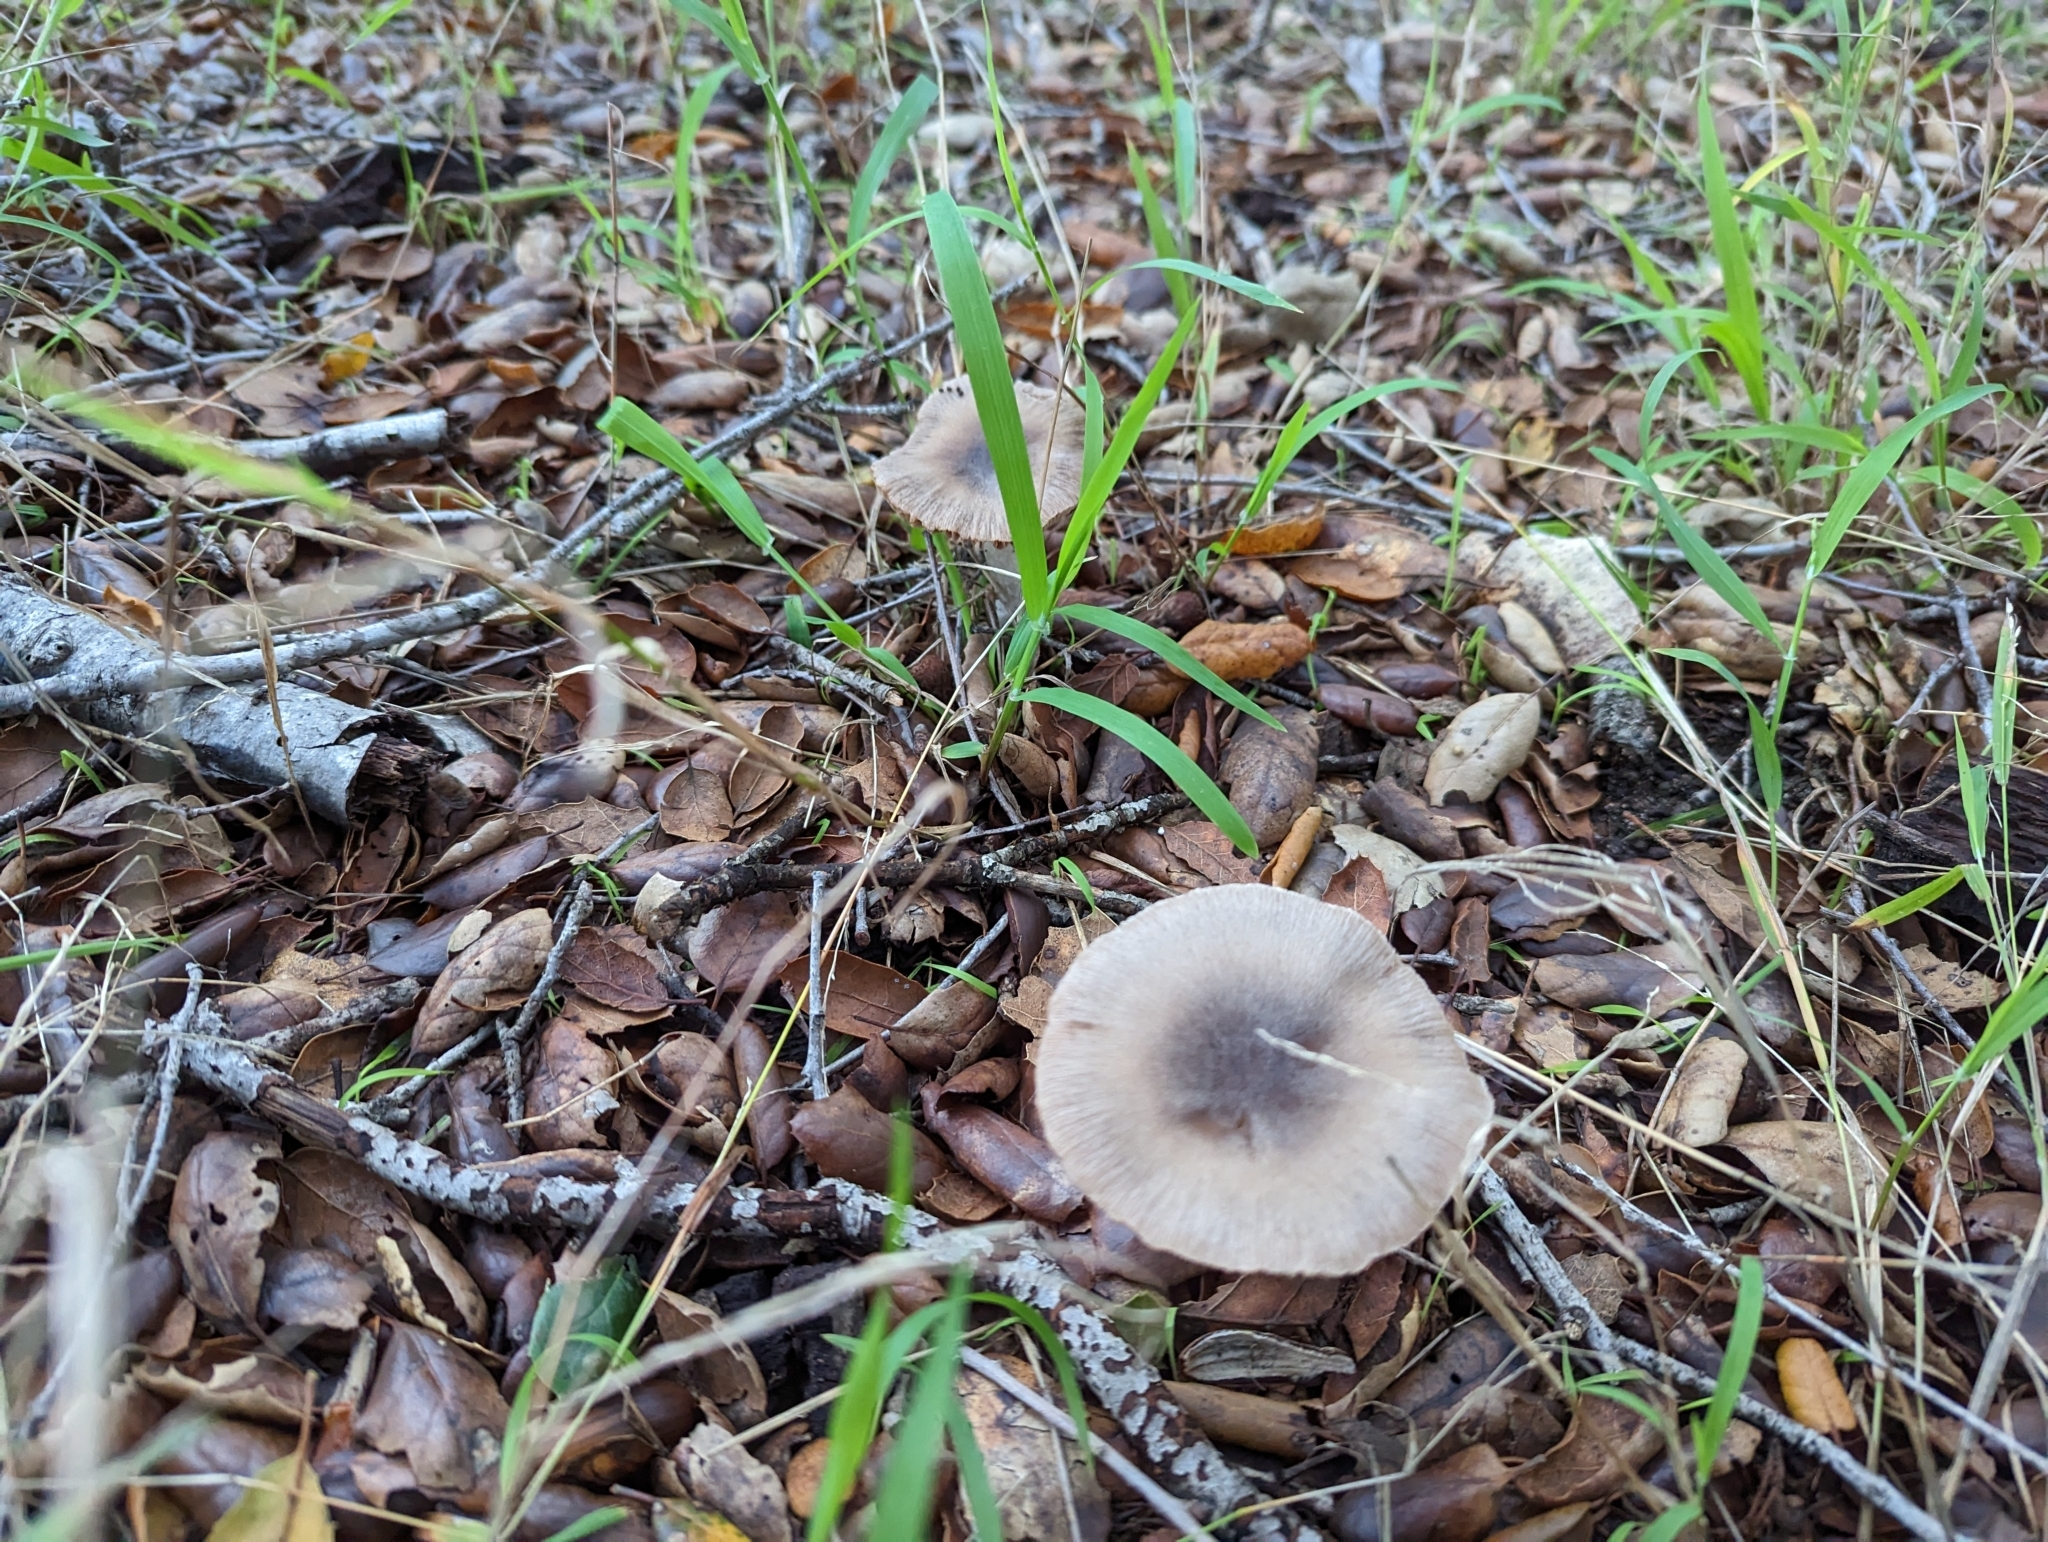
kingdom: Fungi
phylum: Basidiomycota
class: Agaricomycetes
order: Agaricales
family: Psathyrellaceae
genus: Psathyrella
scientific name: Psathyrella uliginicola
